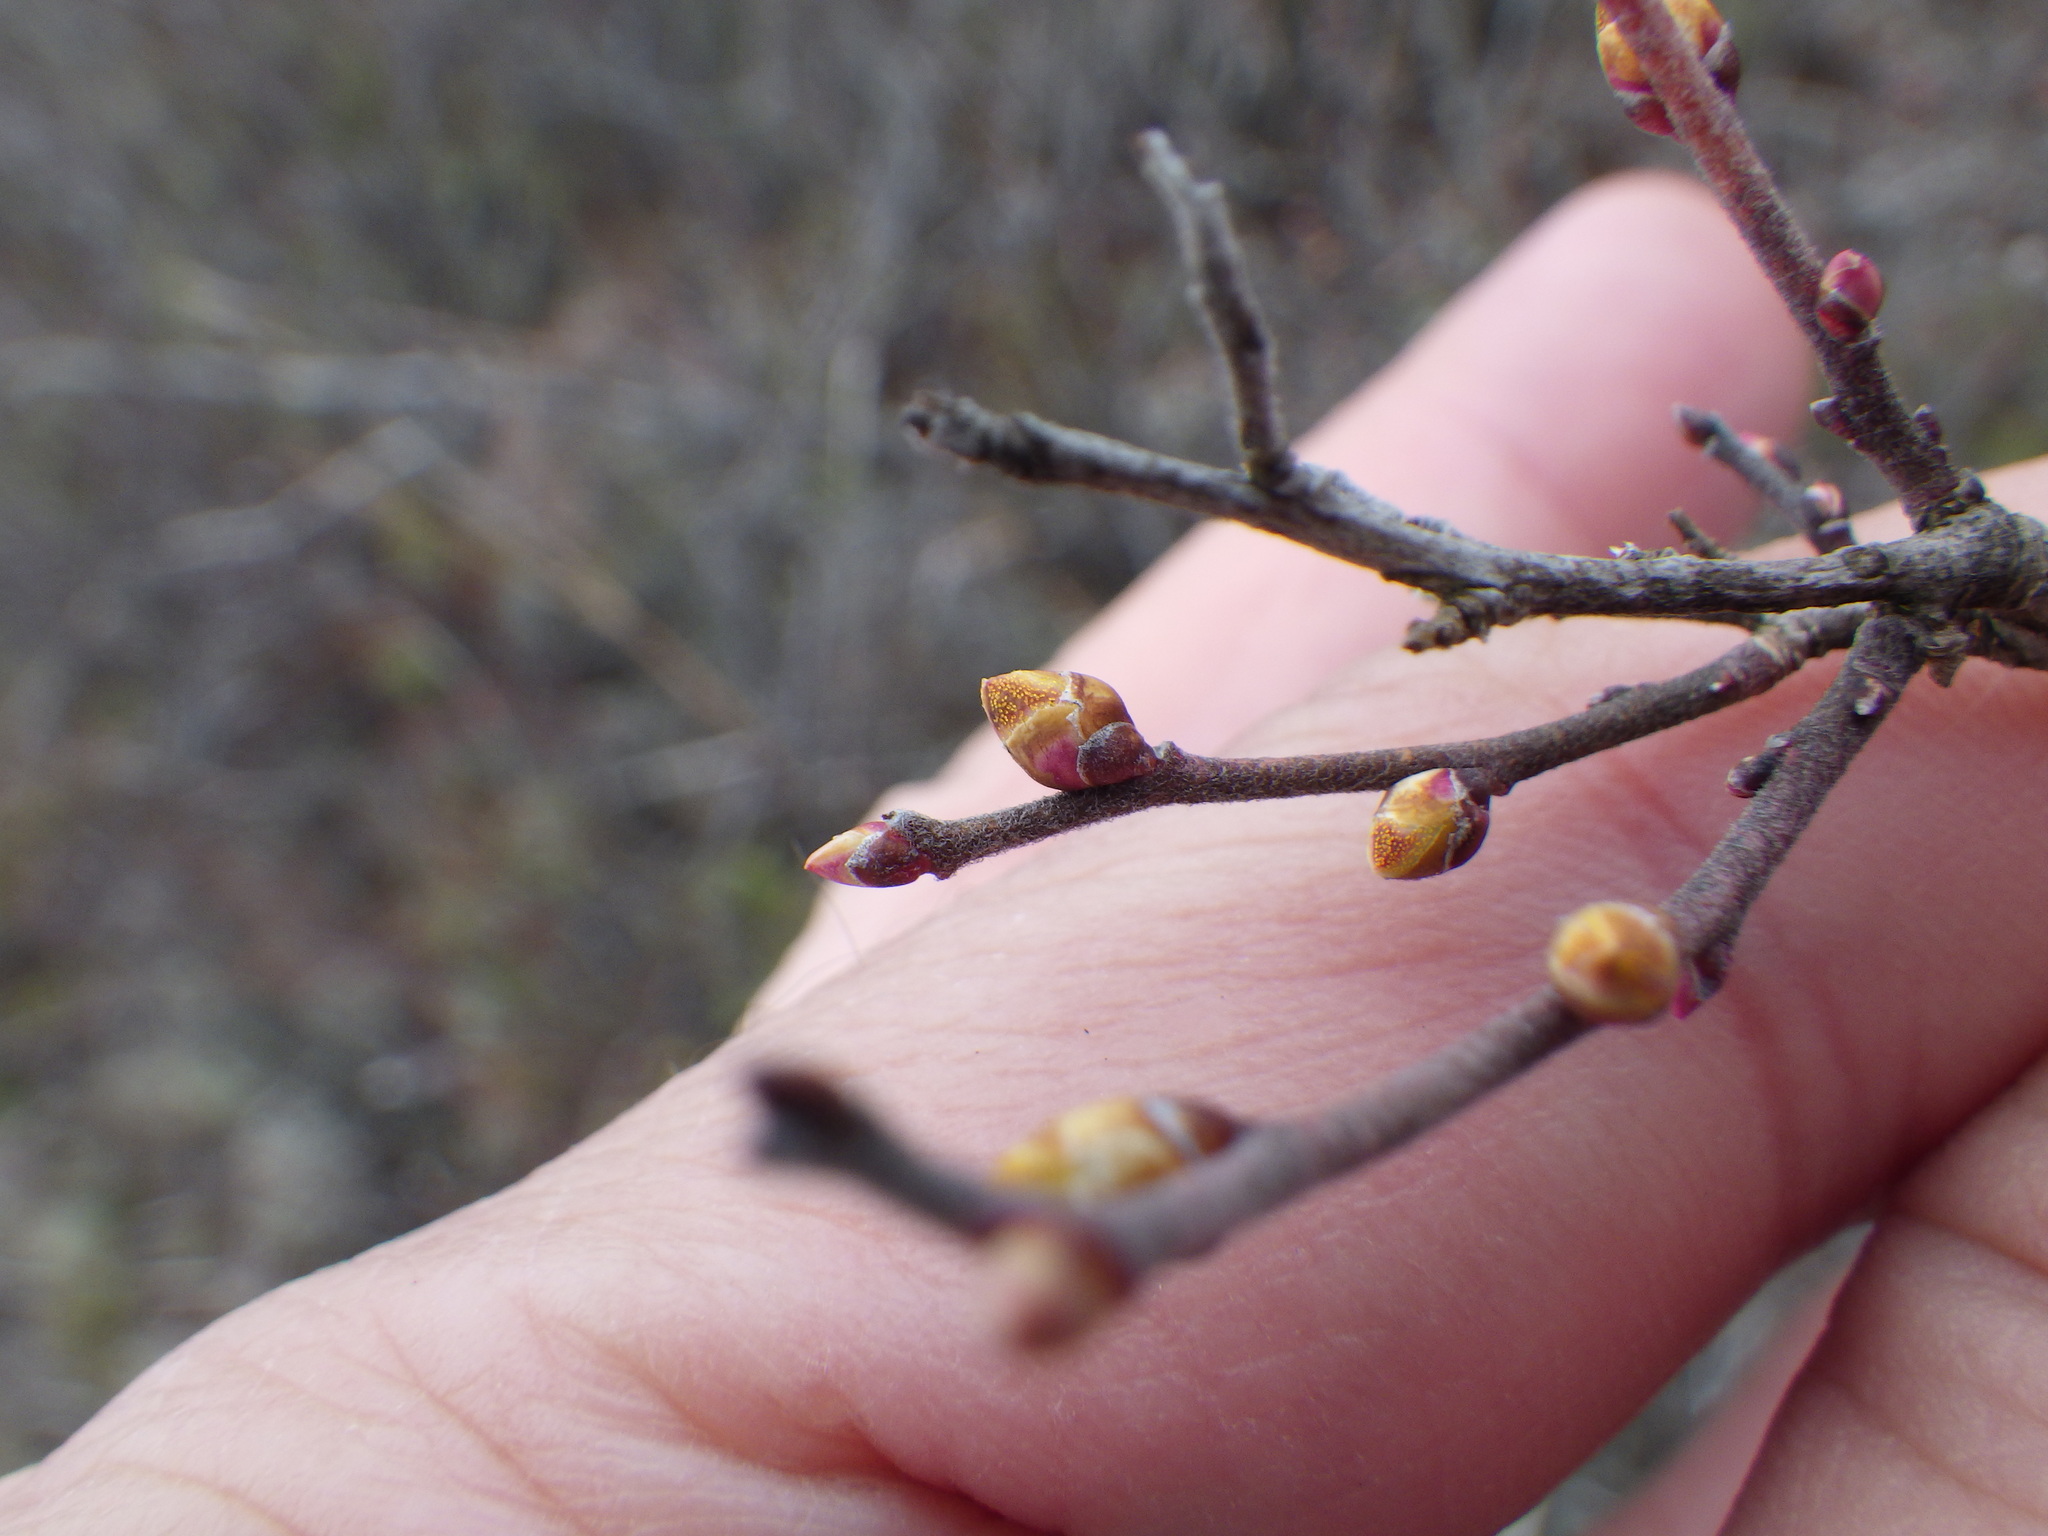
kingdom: Plantae
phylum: Tracheophyta
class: Magnoliopsida
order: Ericales
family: Ericaceae
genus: Gaylussacia
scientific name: Gaylussacia baccata
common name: Black huckleberry
